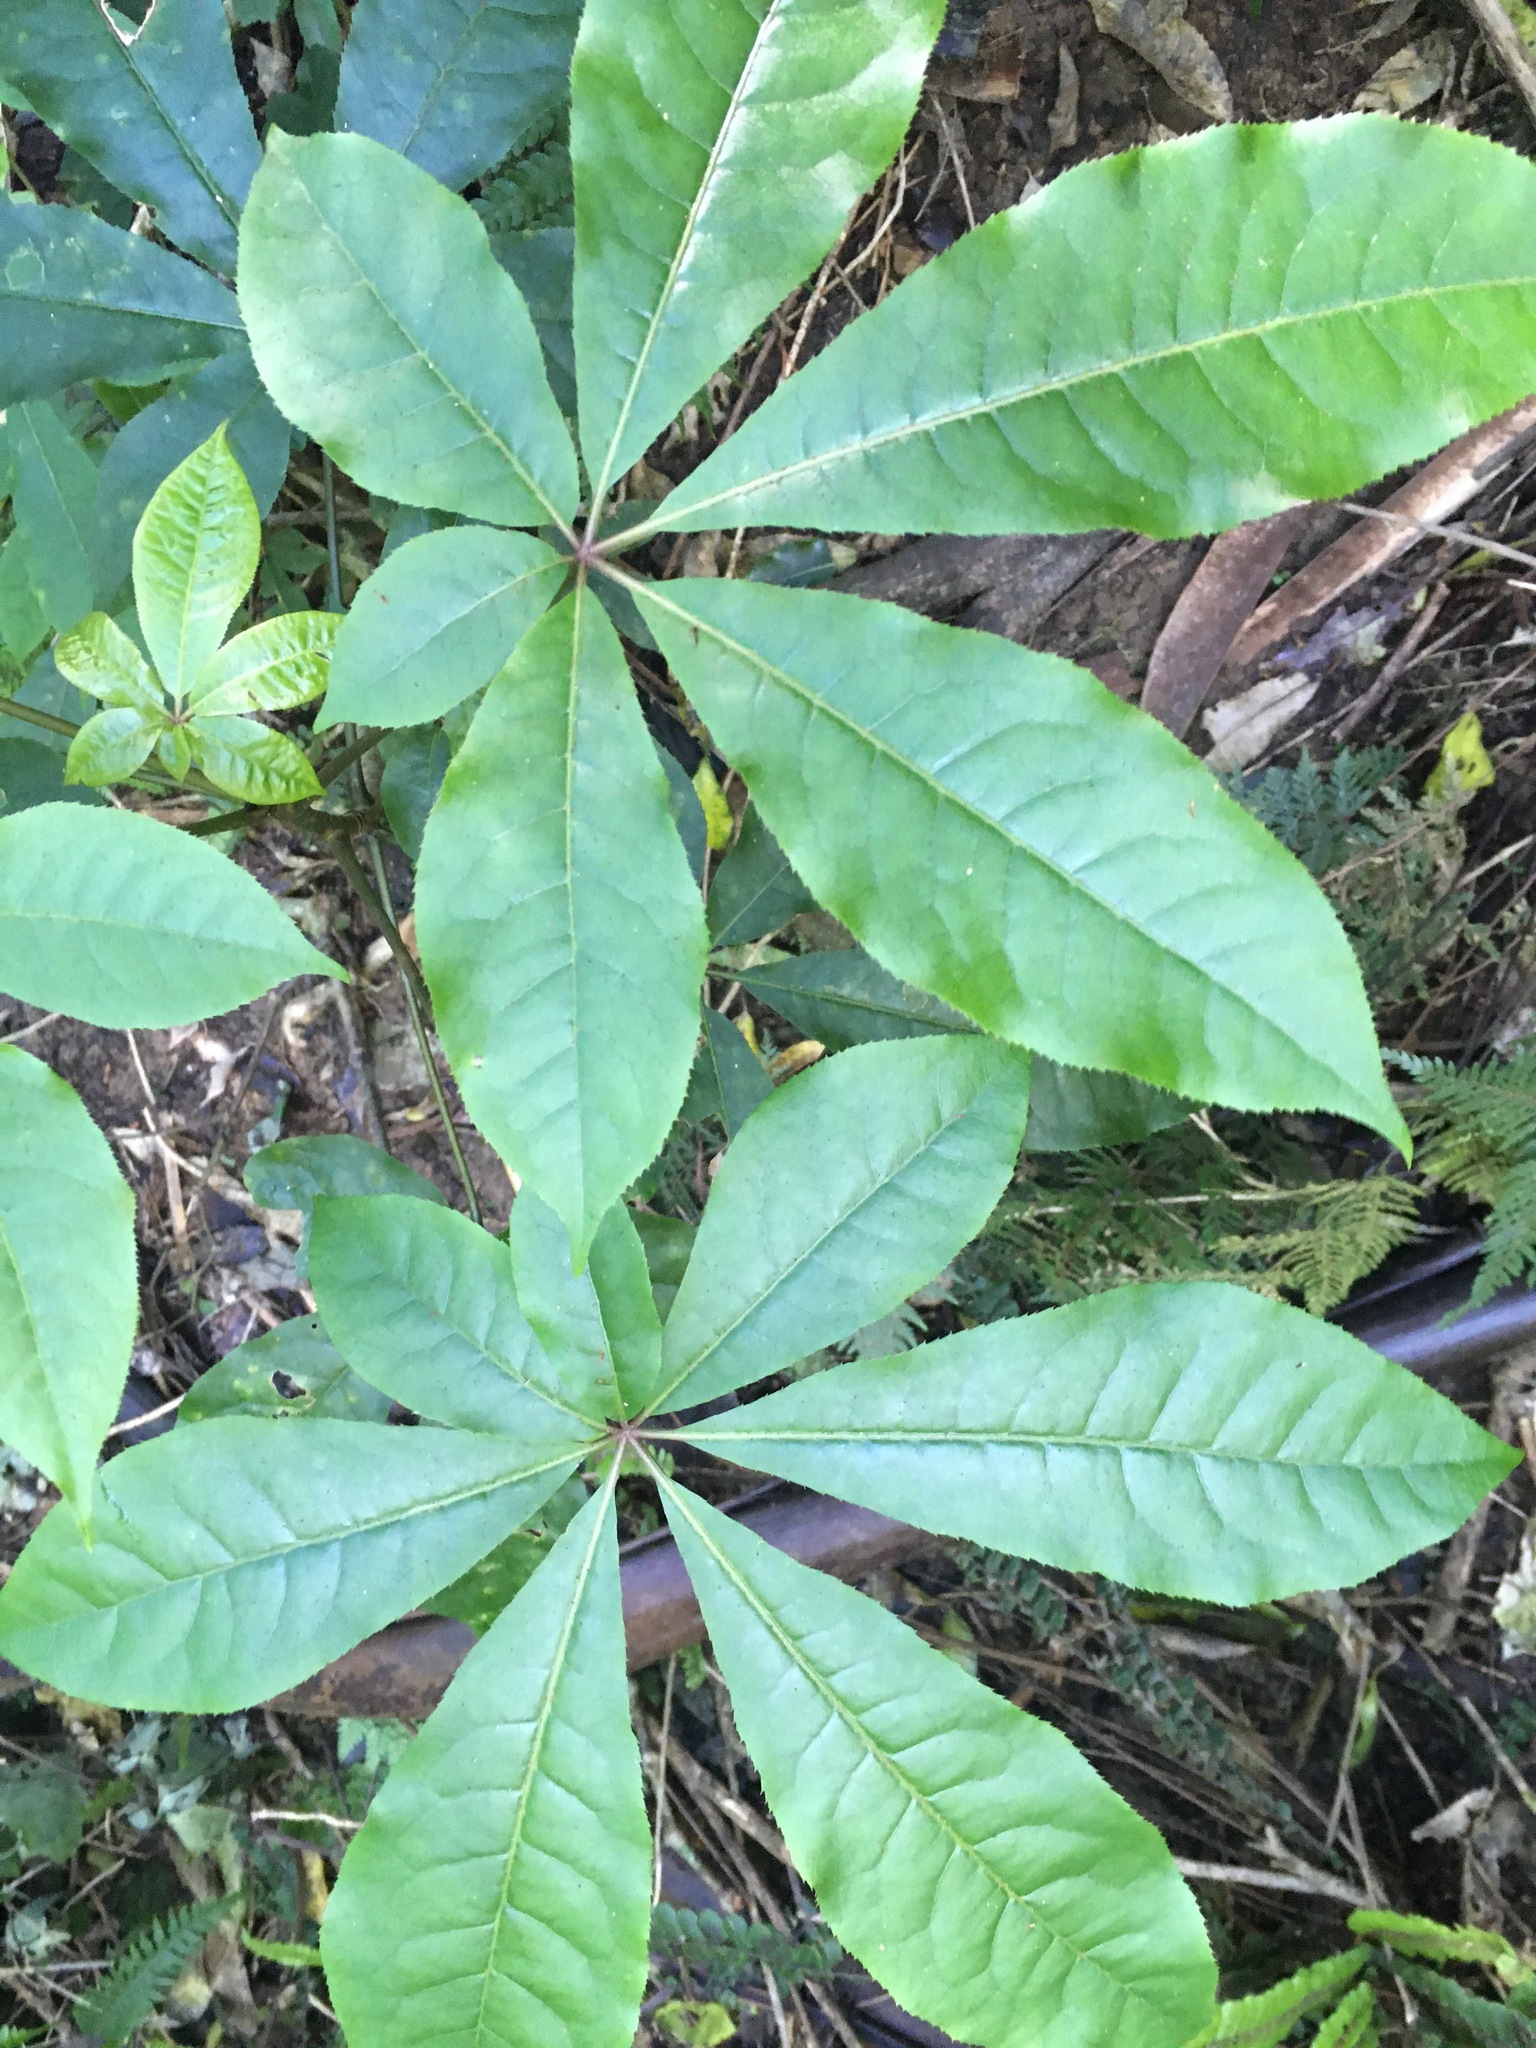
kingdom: Plantae
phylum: Tracheophyta
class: Magnoliopsida
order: Apiales
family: Araliaceae
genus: Schefflera
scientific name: Schefflera digitata
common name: Pate
